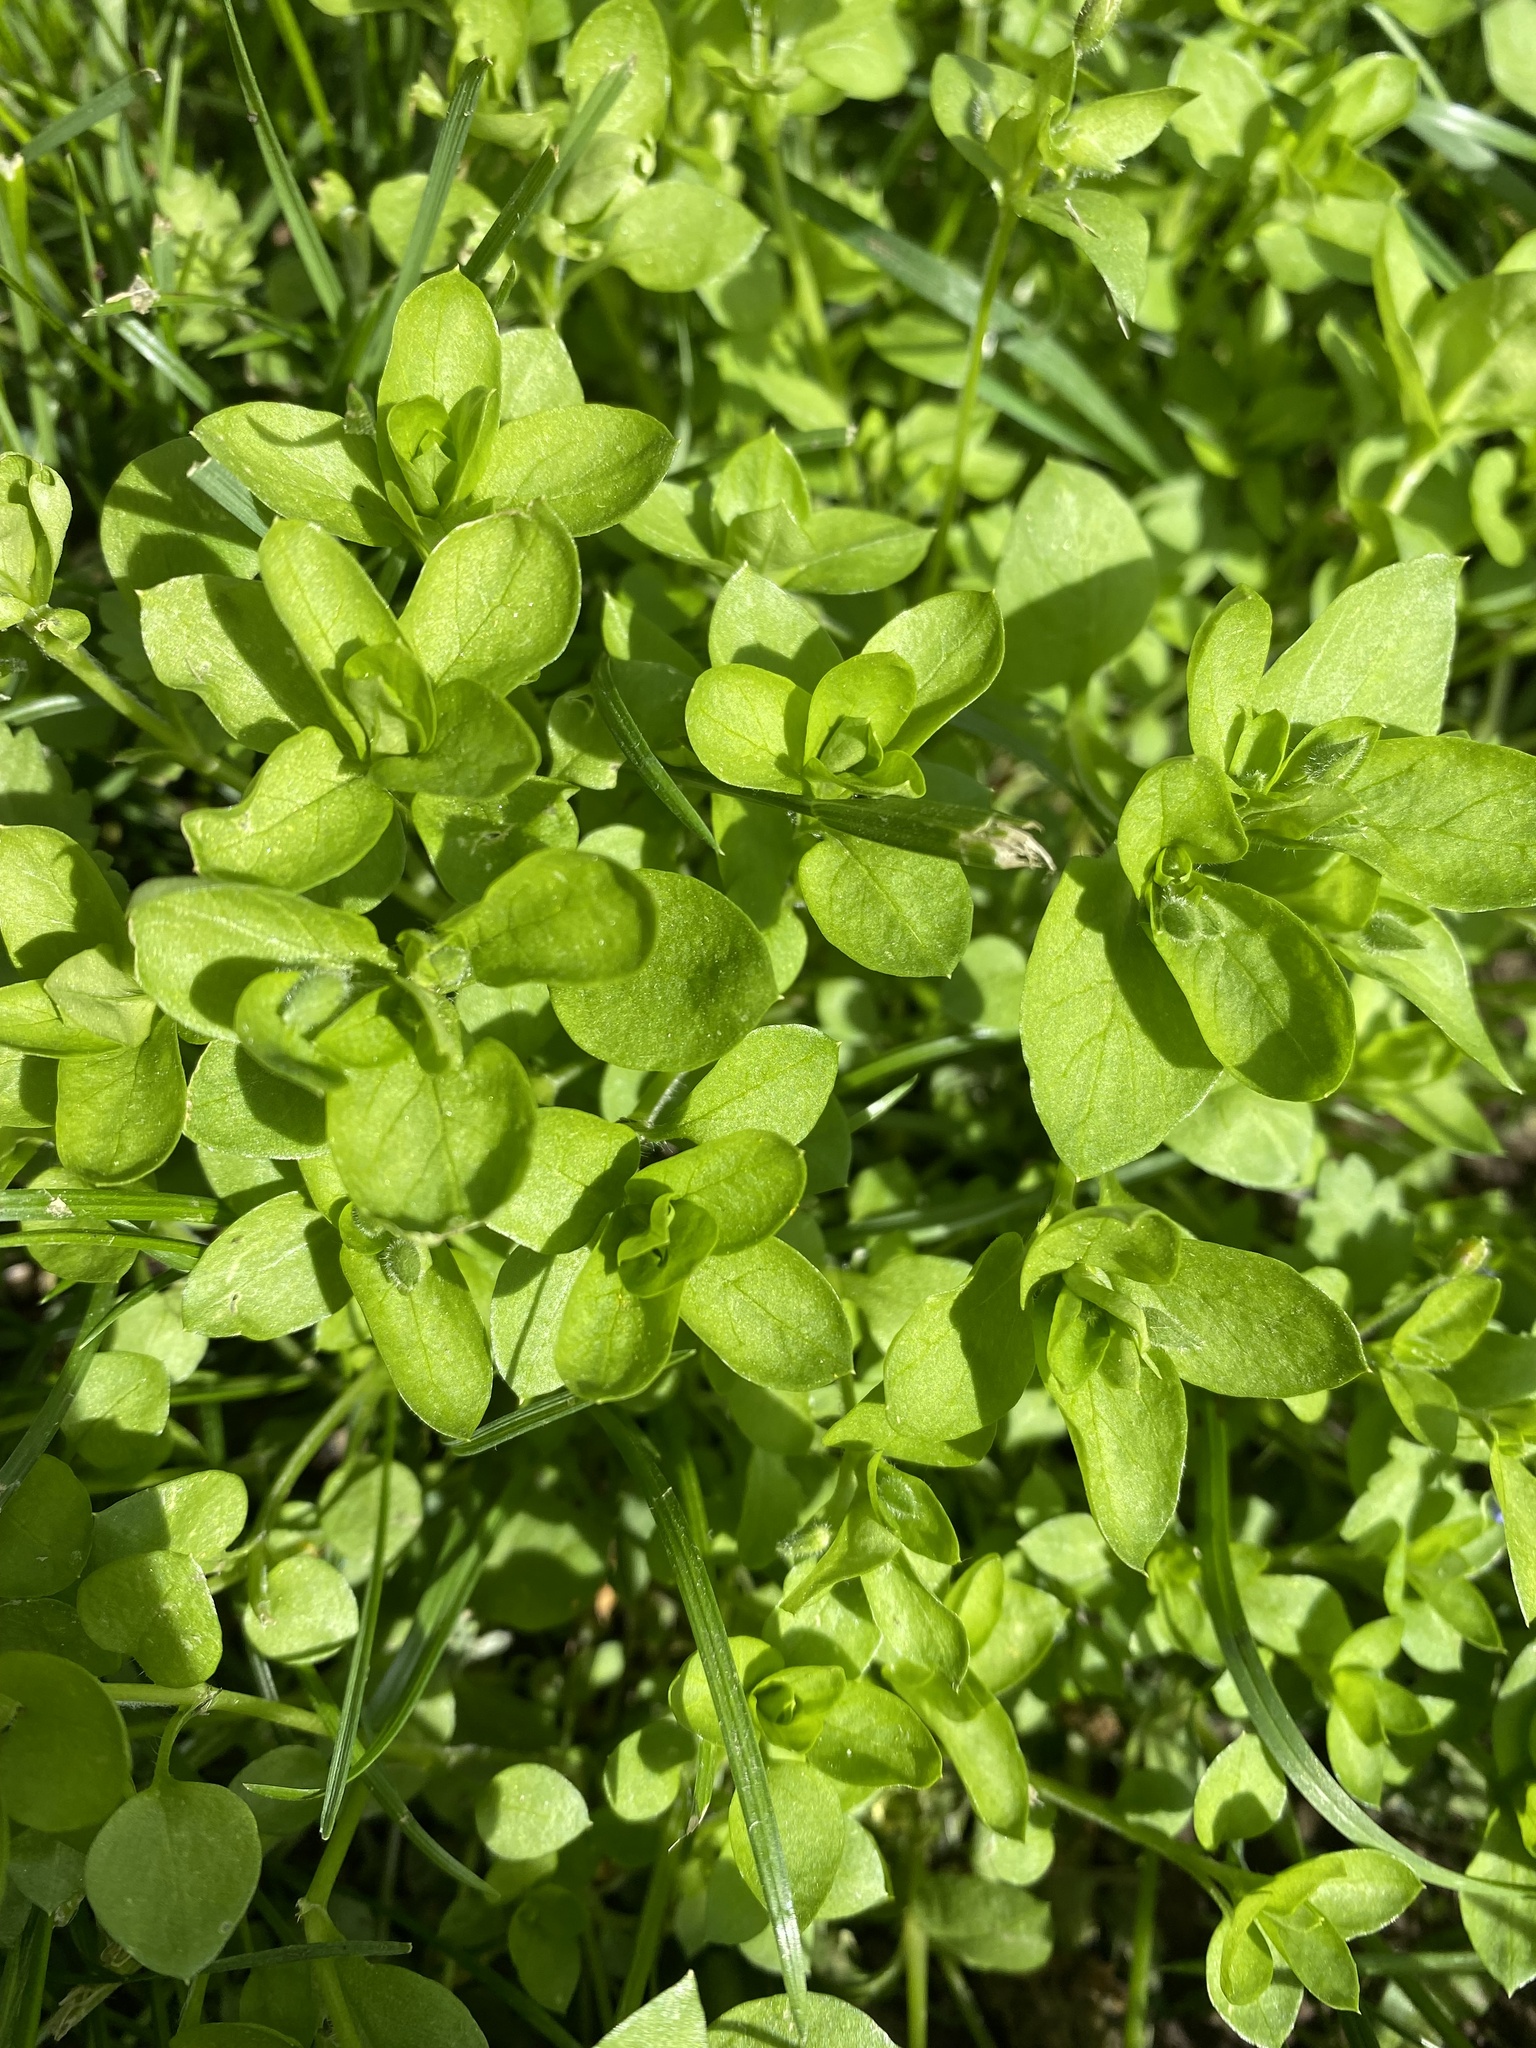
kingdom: Plantae
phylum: Tracheophyta
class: Magnoliopsida
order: Caryophyllales
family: Caryophyllaceae
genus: Stellaria
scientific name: Stellaria media
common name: Common chickweed
